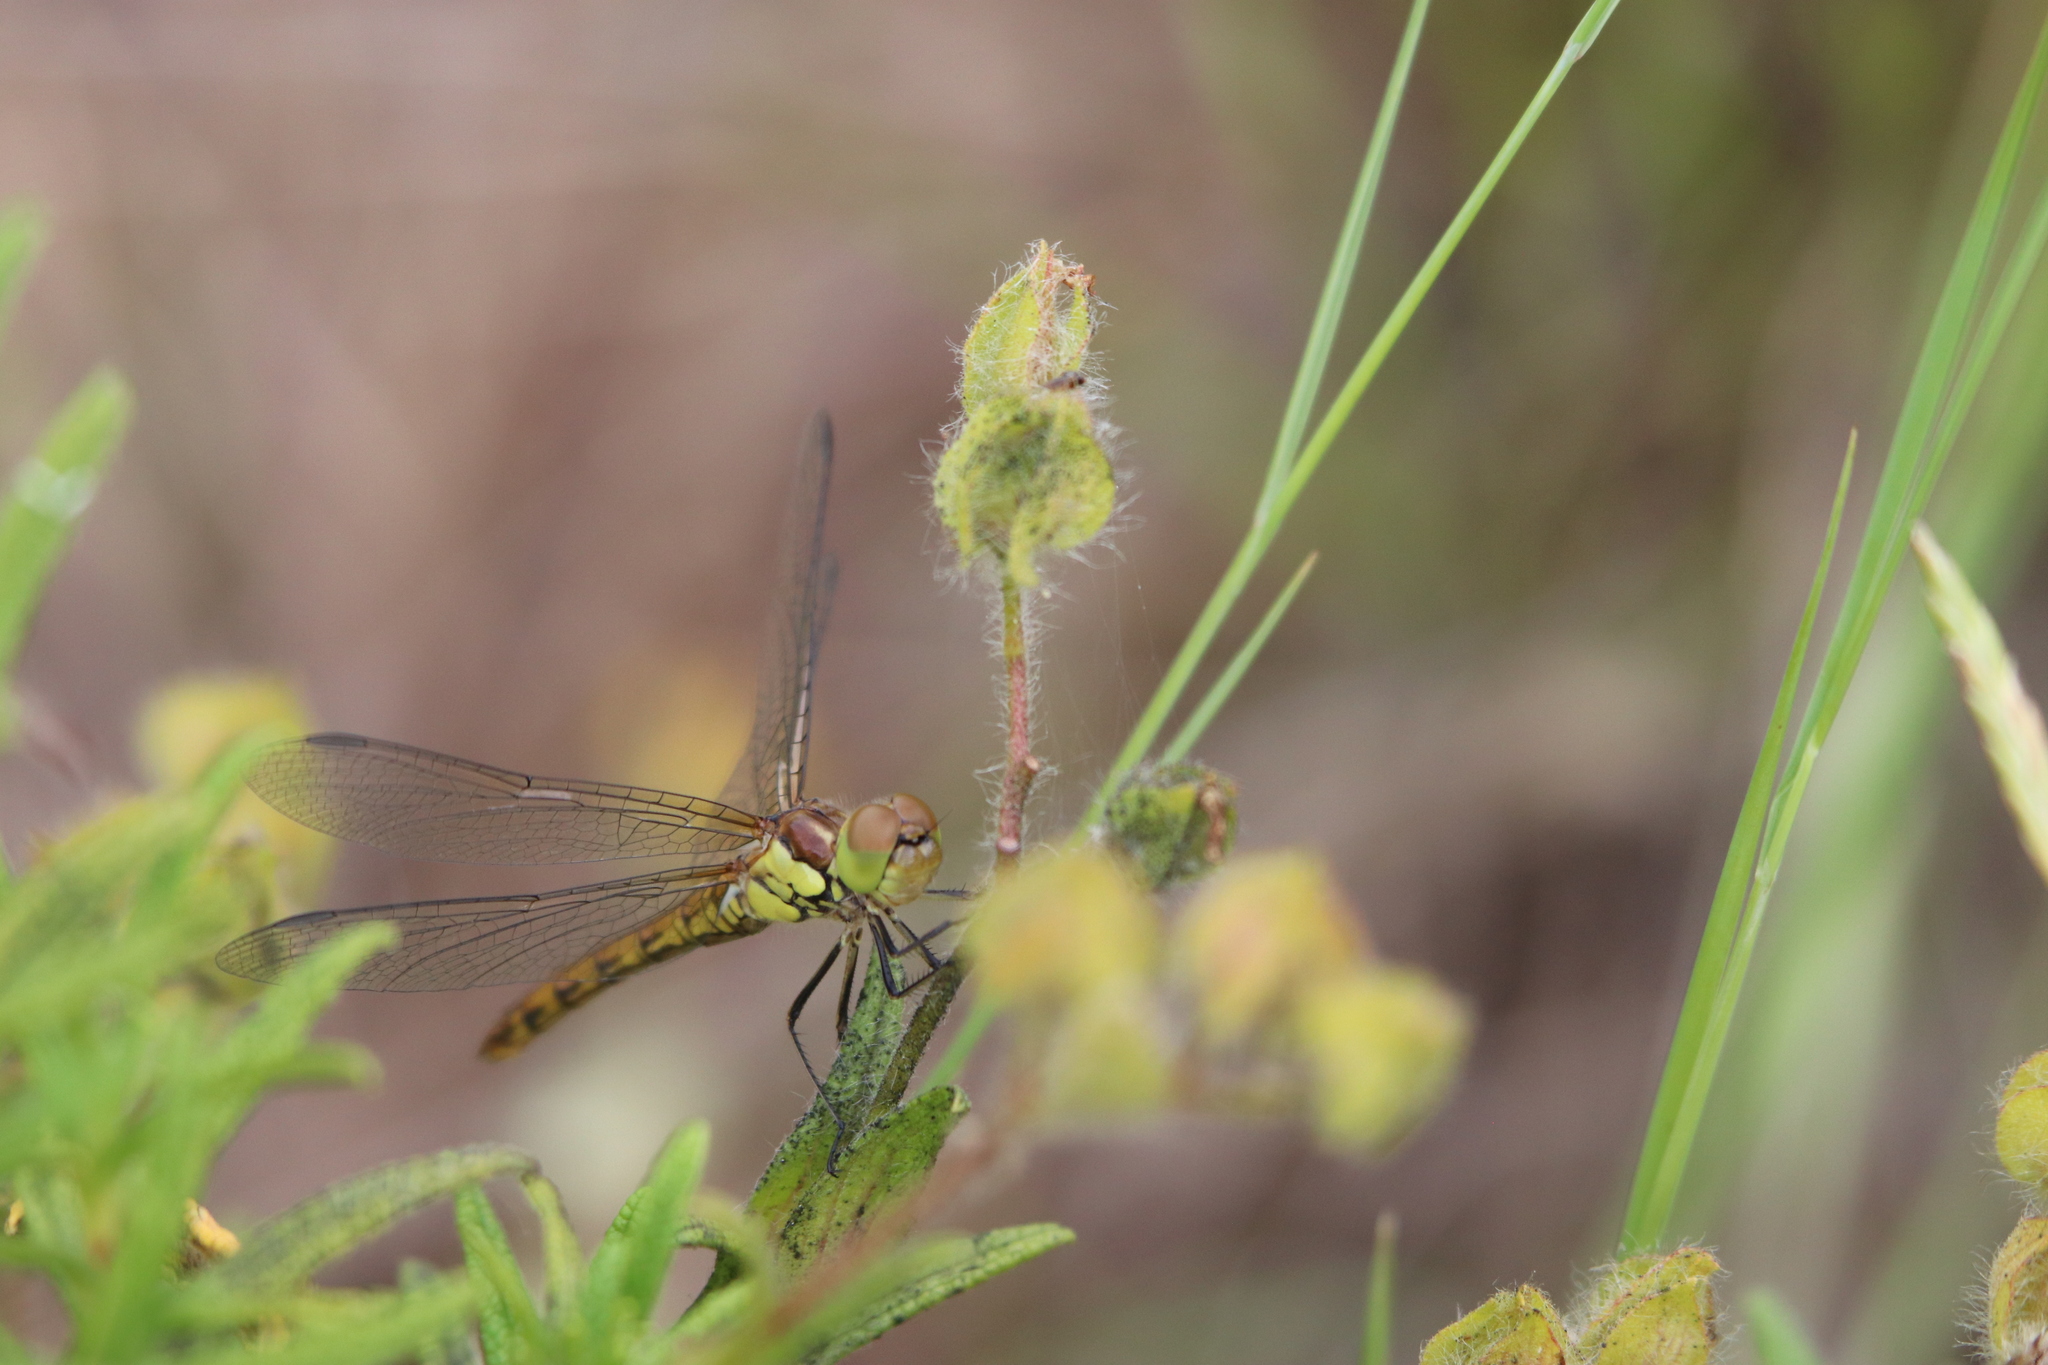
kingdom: Animalia
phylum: Arthropoda
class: Insecta
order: Odonata
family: Libellulidae
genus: Sympetrum
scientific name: Sympetrum striolatum
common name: Common darter
